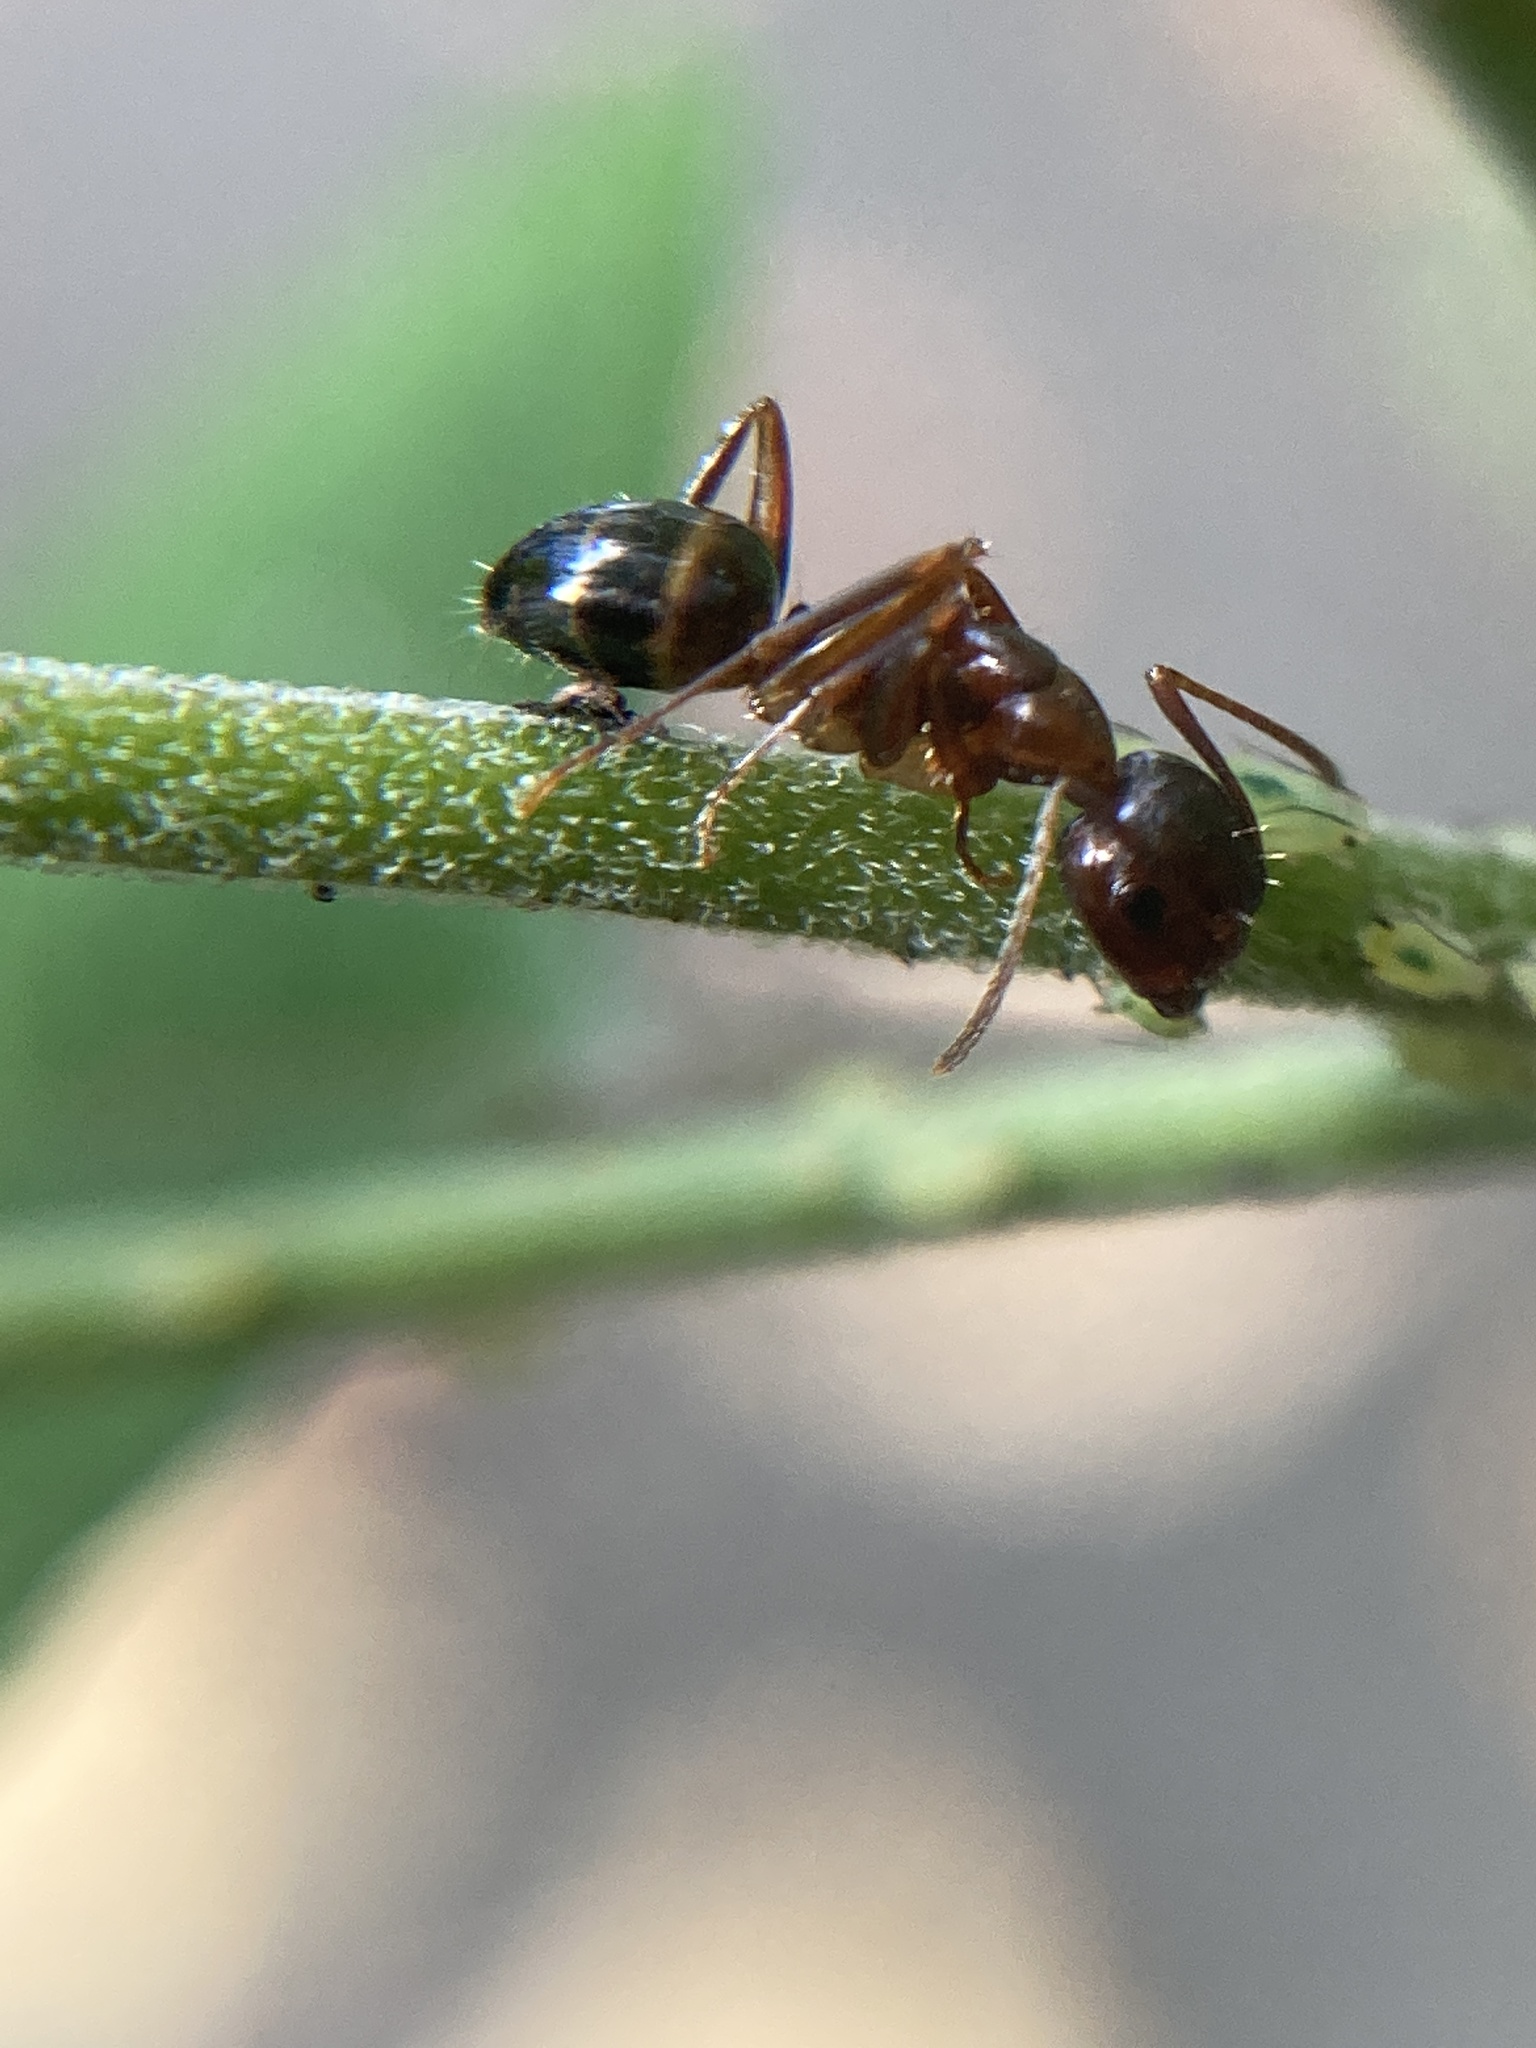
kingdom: Animalia
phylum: Arthropoda
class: Insecta
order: Hymenoptera
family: Formicidae
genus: Camponotus
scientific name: Camponotus subbarbatus
